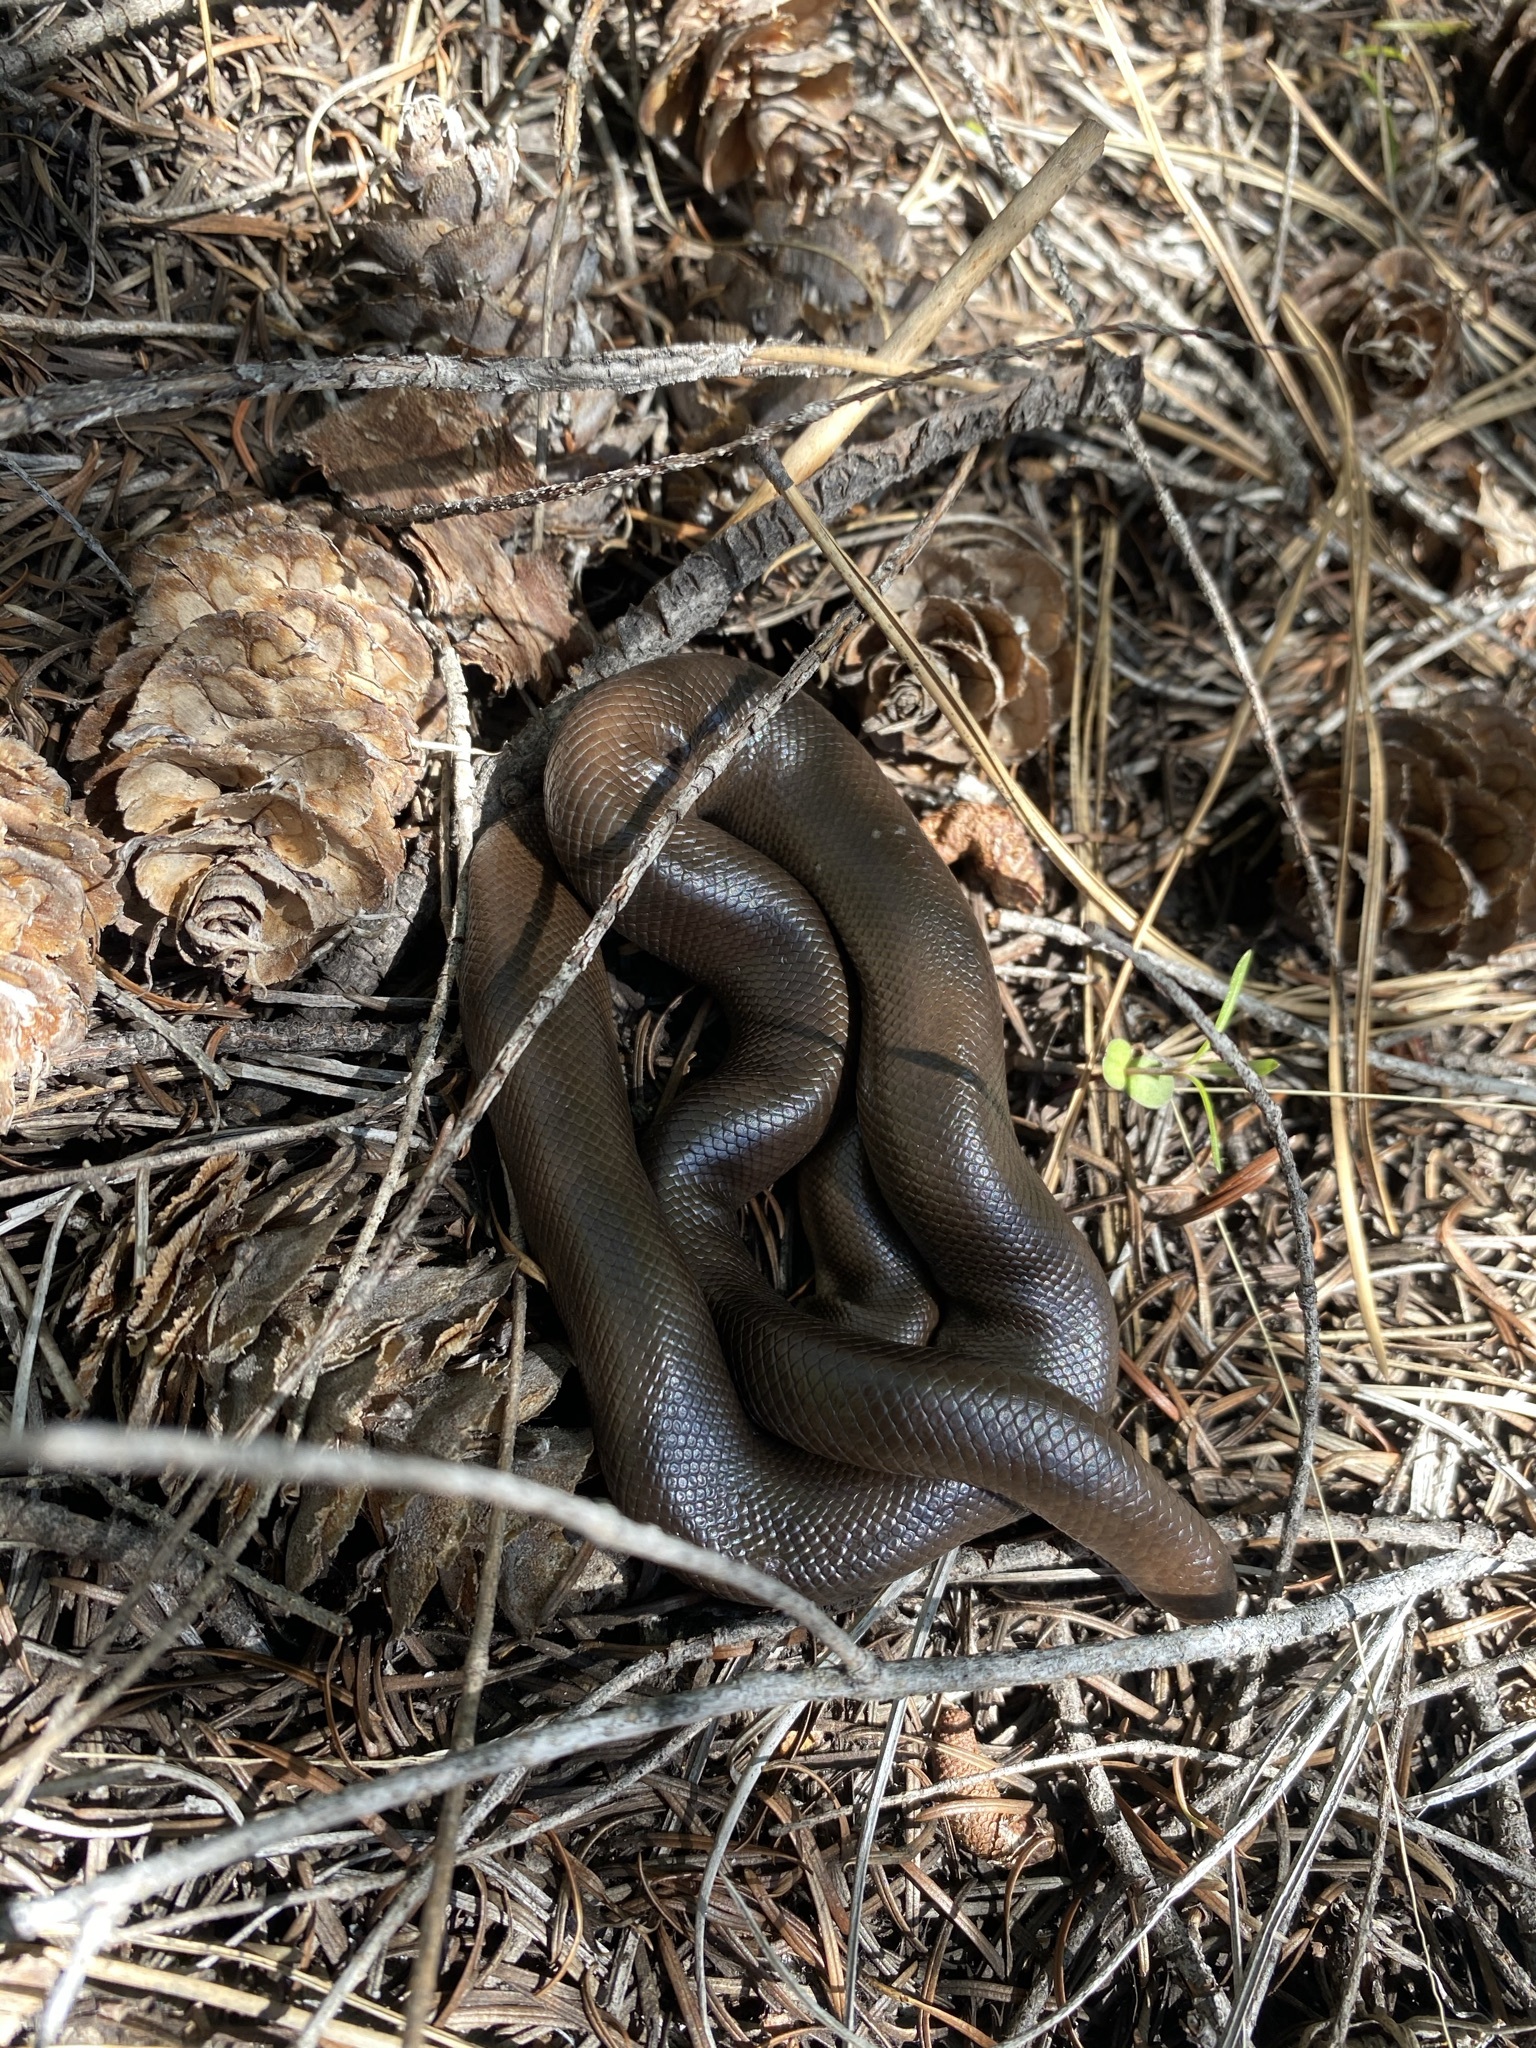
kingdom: Animalia
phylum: Chordata
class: Squamata
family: Boidae
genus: Charina
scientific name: Charina bottae
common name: Northern rubber boa
